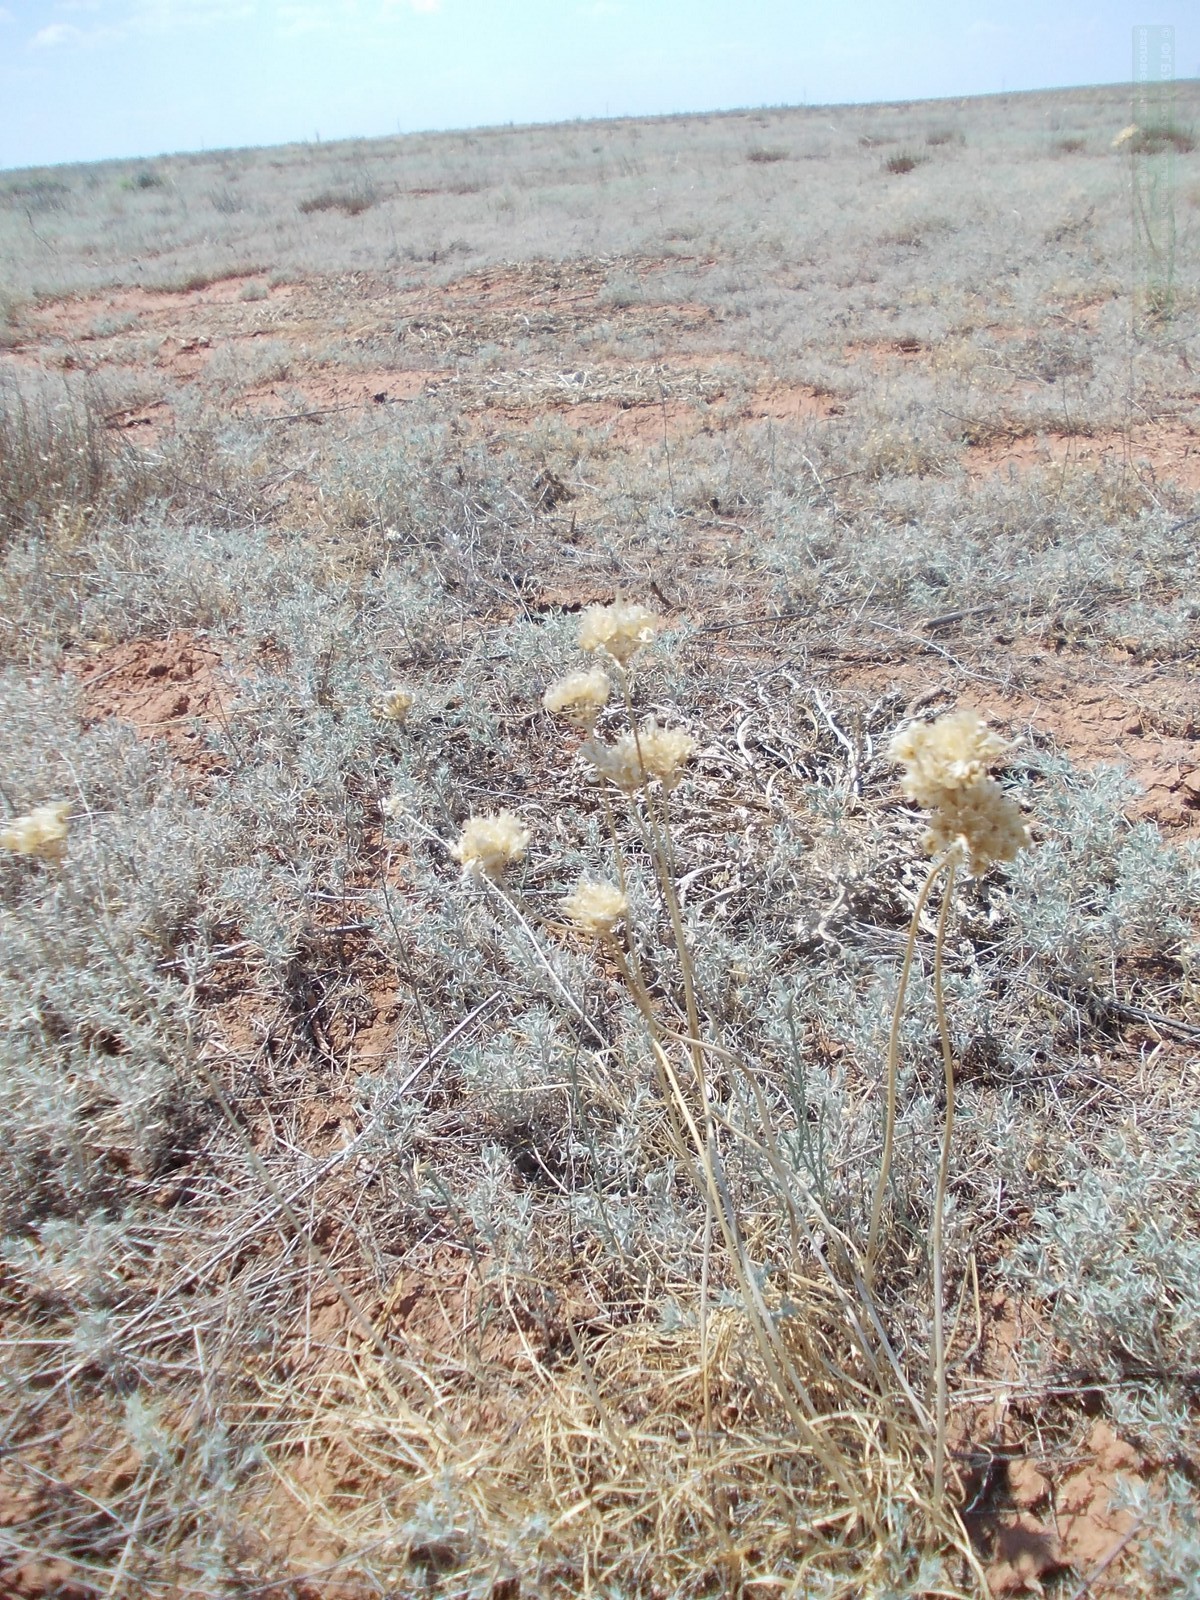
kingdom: Plantae
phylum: Tracheophyta
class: Liliopsida
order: Asparagales
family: Amaryllidaceae
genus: Allium
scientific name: Allium inderiense
